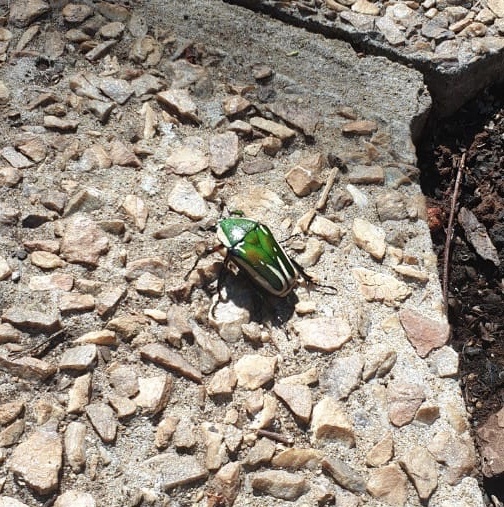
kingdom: Animalia
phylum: Arthropoda
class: Insecta
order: Coleoptera
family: Scarabaeidae
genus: Dicronorhina
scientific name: Dicronorhina derbyana
